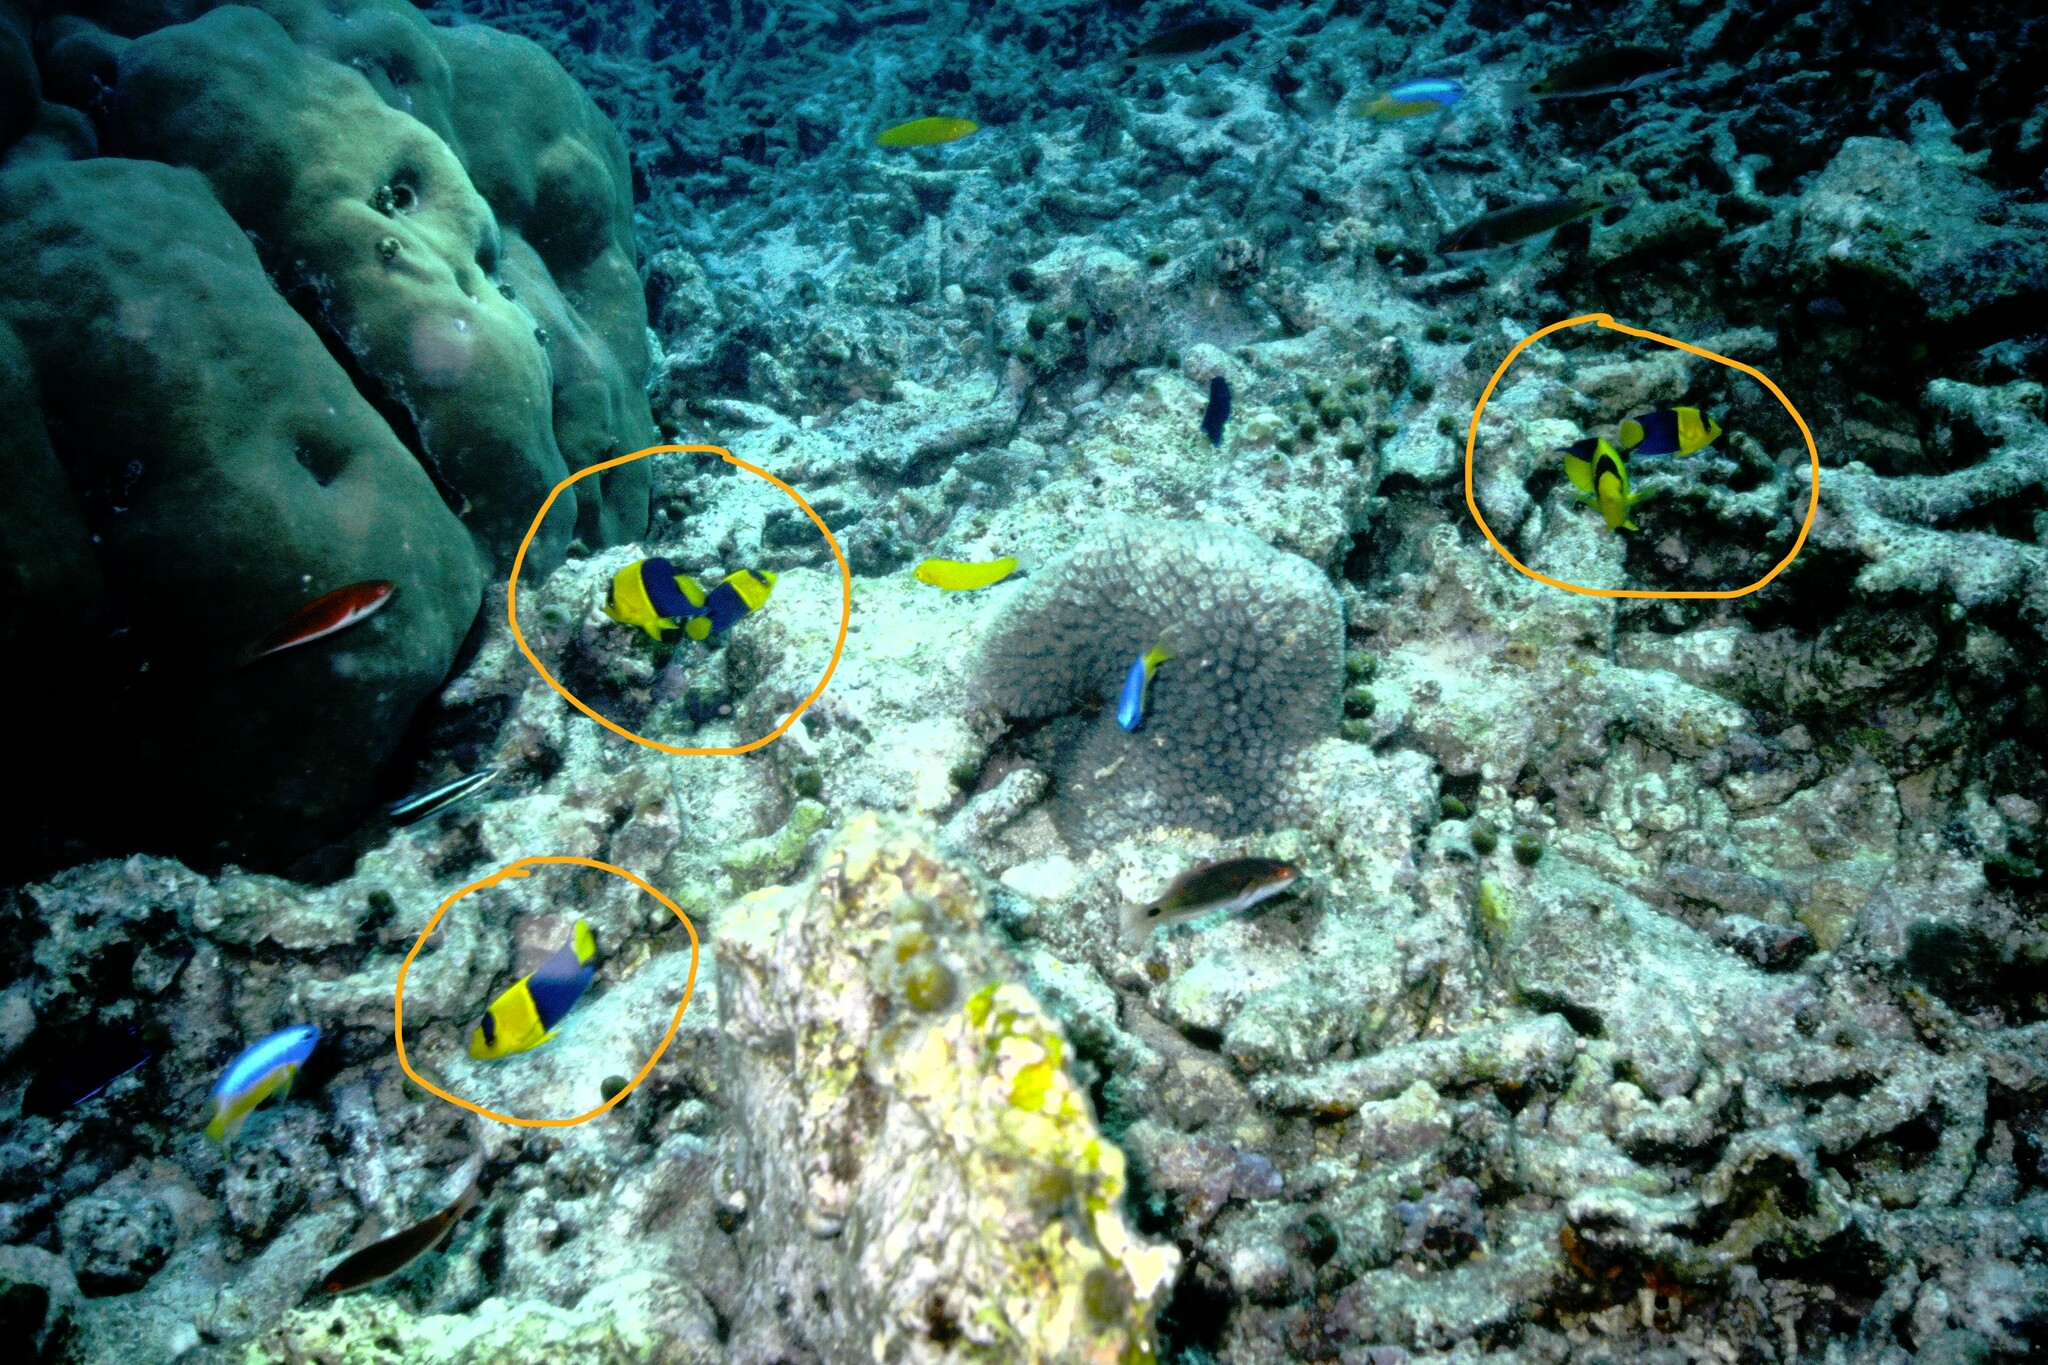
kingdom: Animalia
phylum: Chordata
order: Perciformes
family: Pomacanthidae
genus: Centropyge
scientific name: Centropyge bicolor
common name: Bicolor angelfish
